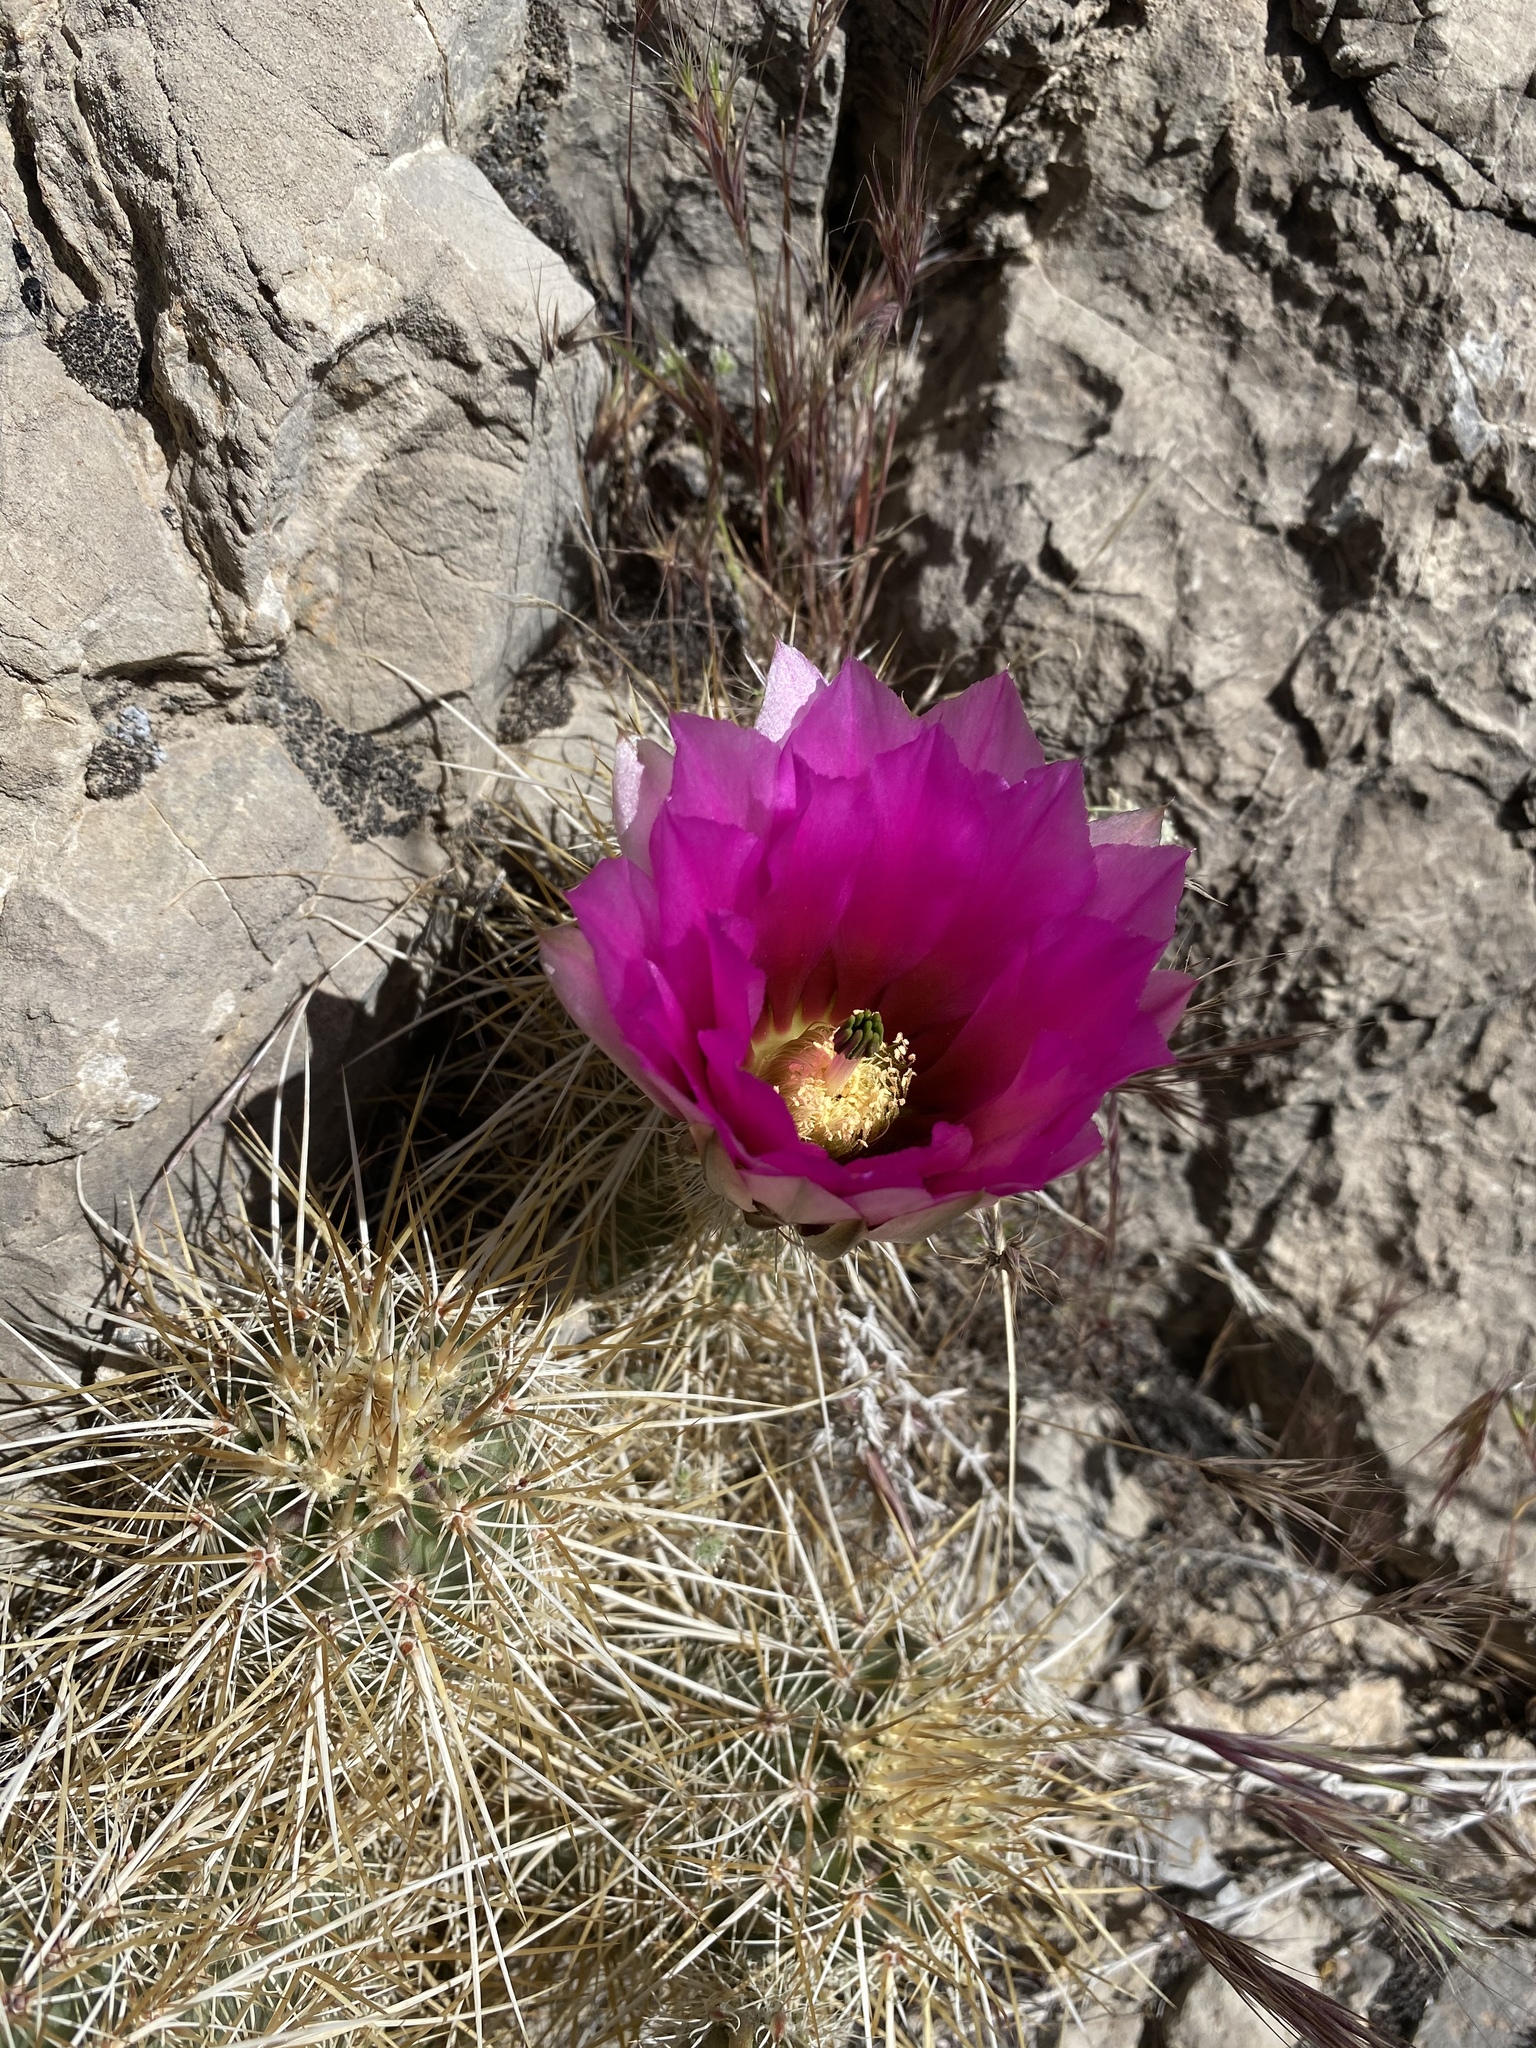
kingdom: Plantae
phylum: Tracheophyta
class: Magnoliopsida
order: Caryophyllales
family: Cactaceae
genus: Echinocereus
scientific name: Echinocereus engelmannii
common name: Engelmann's hedgehog cactus
